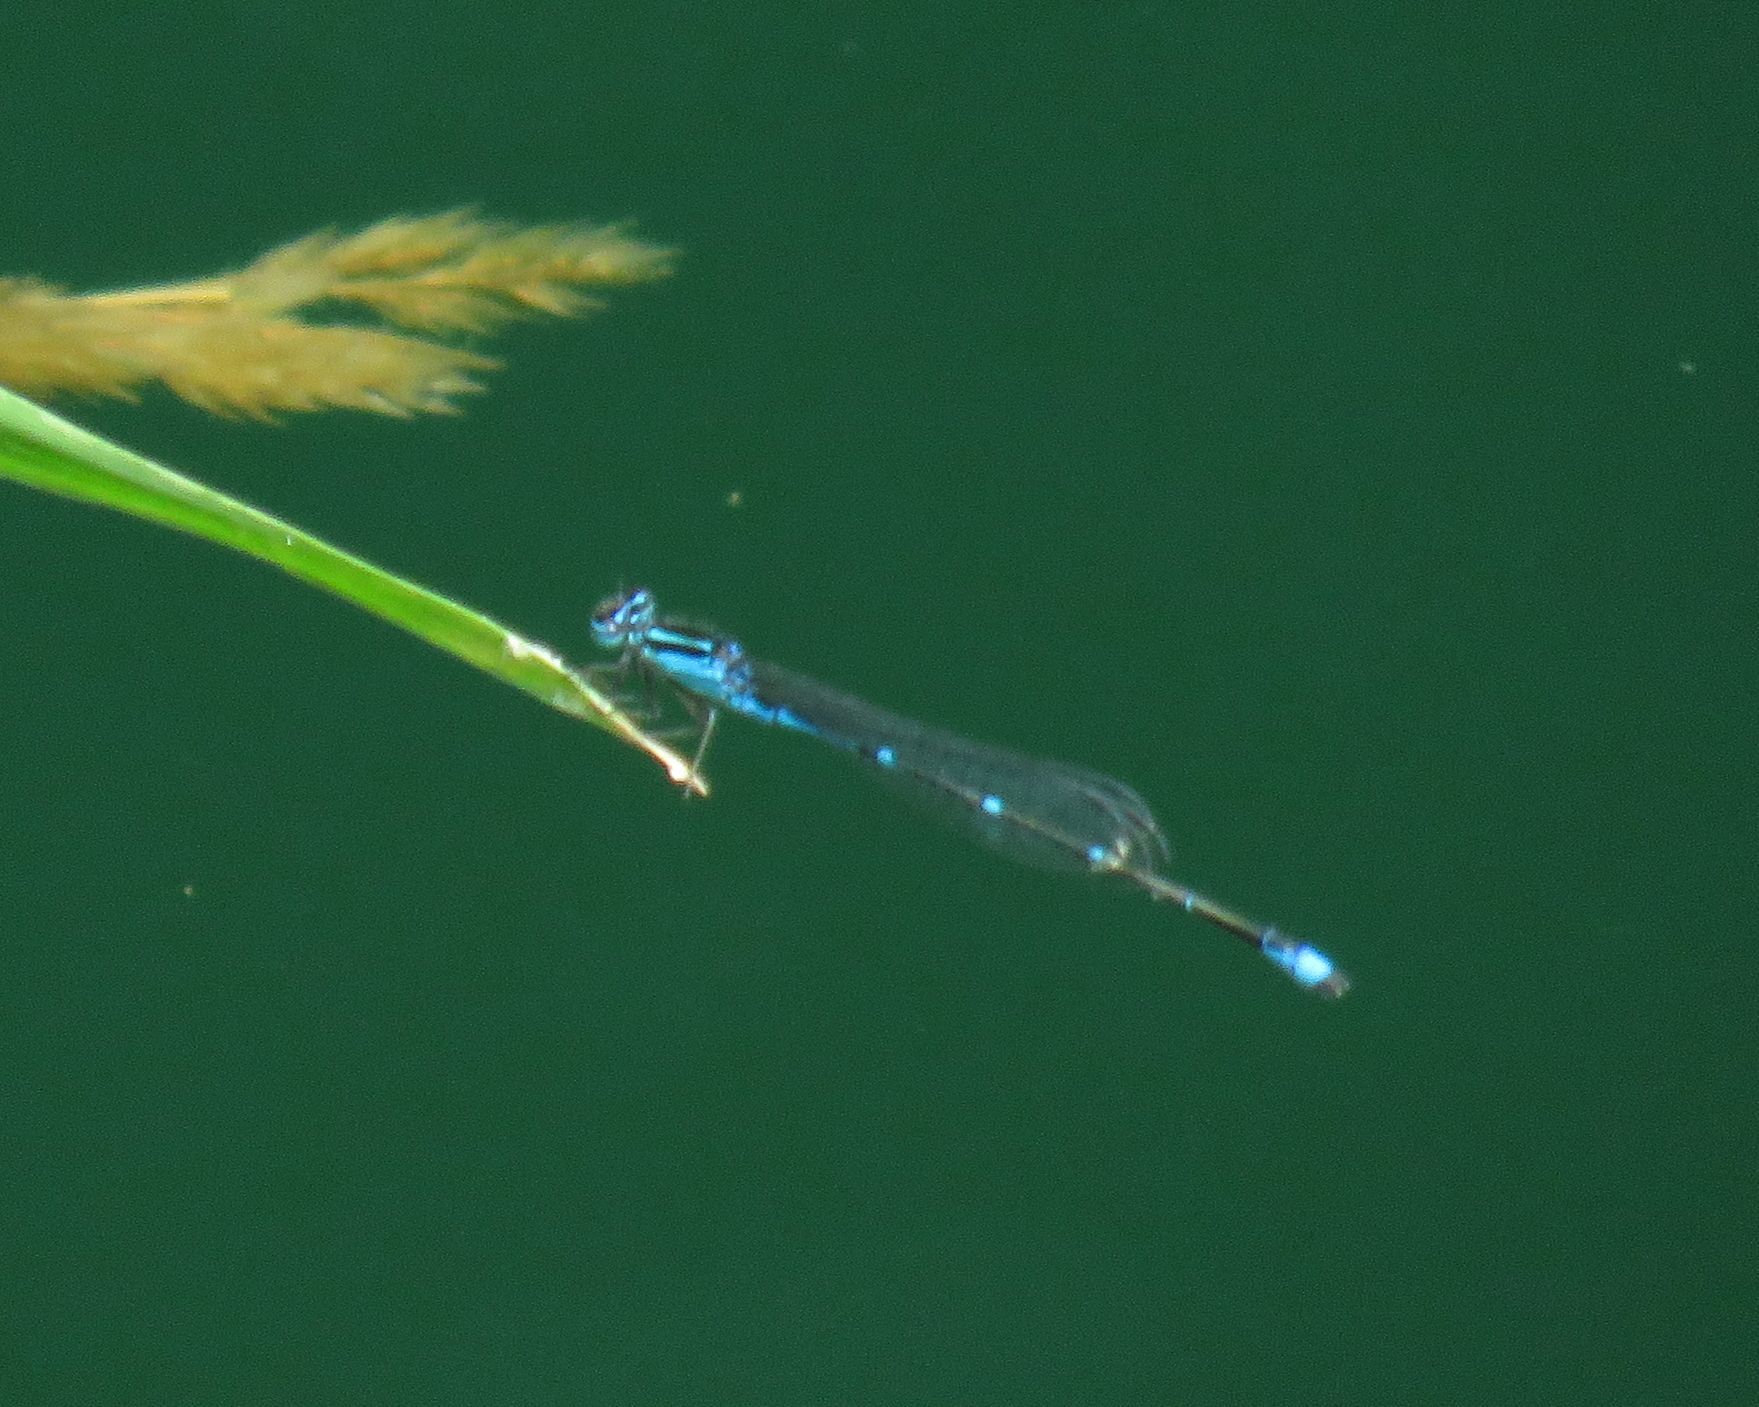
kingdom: Animalia
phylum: Arthropoda
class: Insecta
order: Odonata
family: Coenagrionidae
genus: Enallagma
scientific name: Enallagma exsulans
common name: Stream bluet
